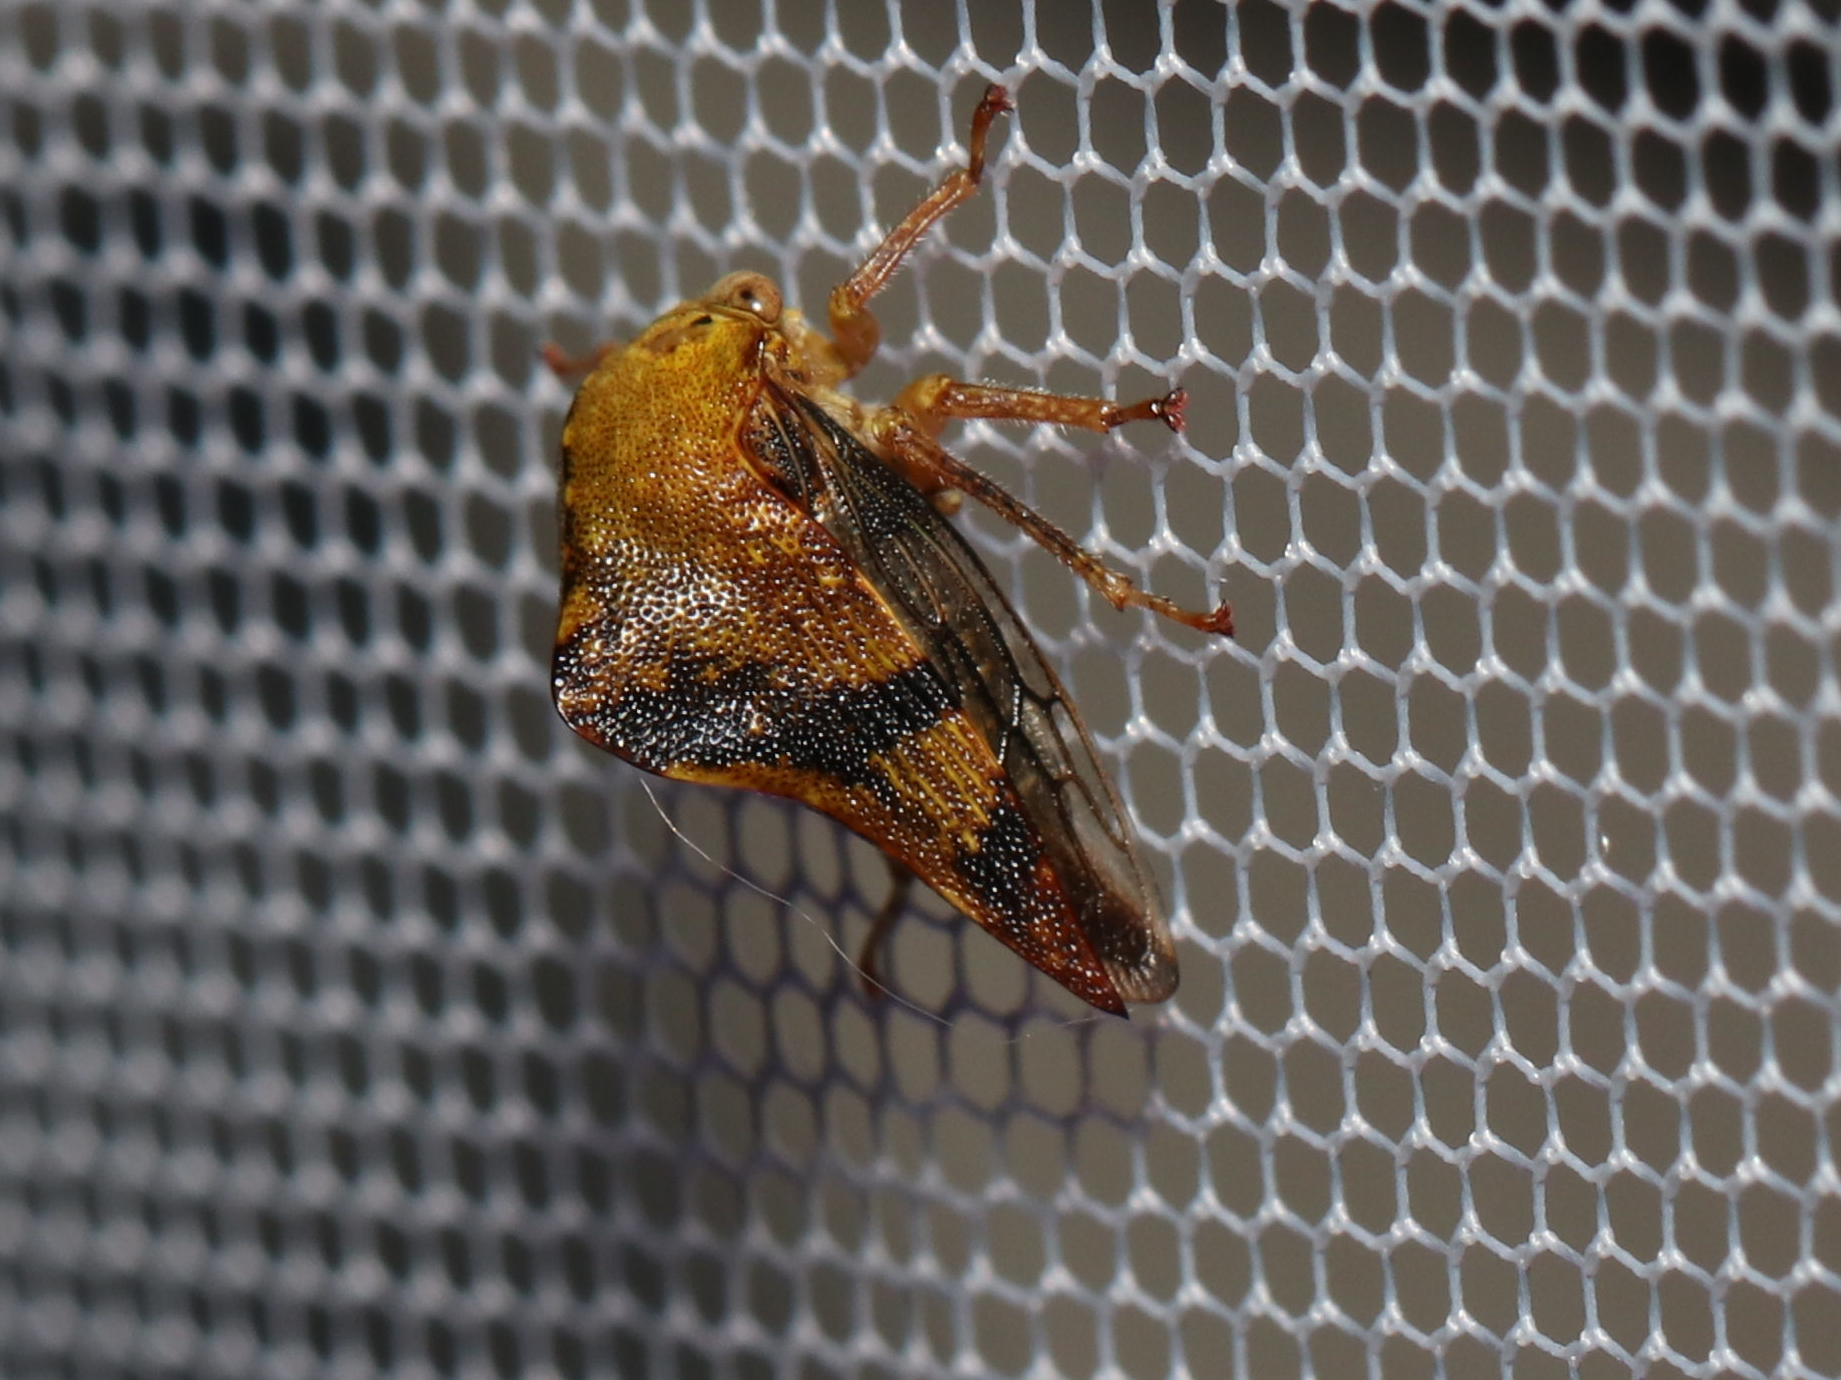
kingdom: Animalia
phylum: Arthropoda
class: Insecta
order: Hemiptera
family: Membracidae
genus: Telamona
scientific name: Telamona tiliae
